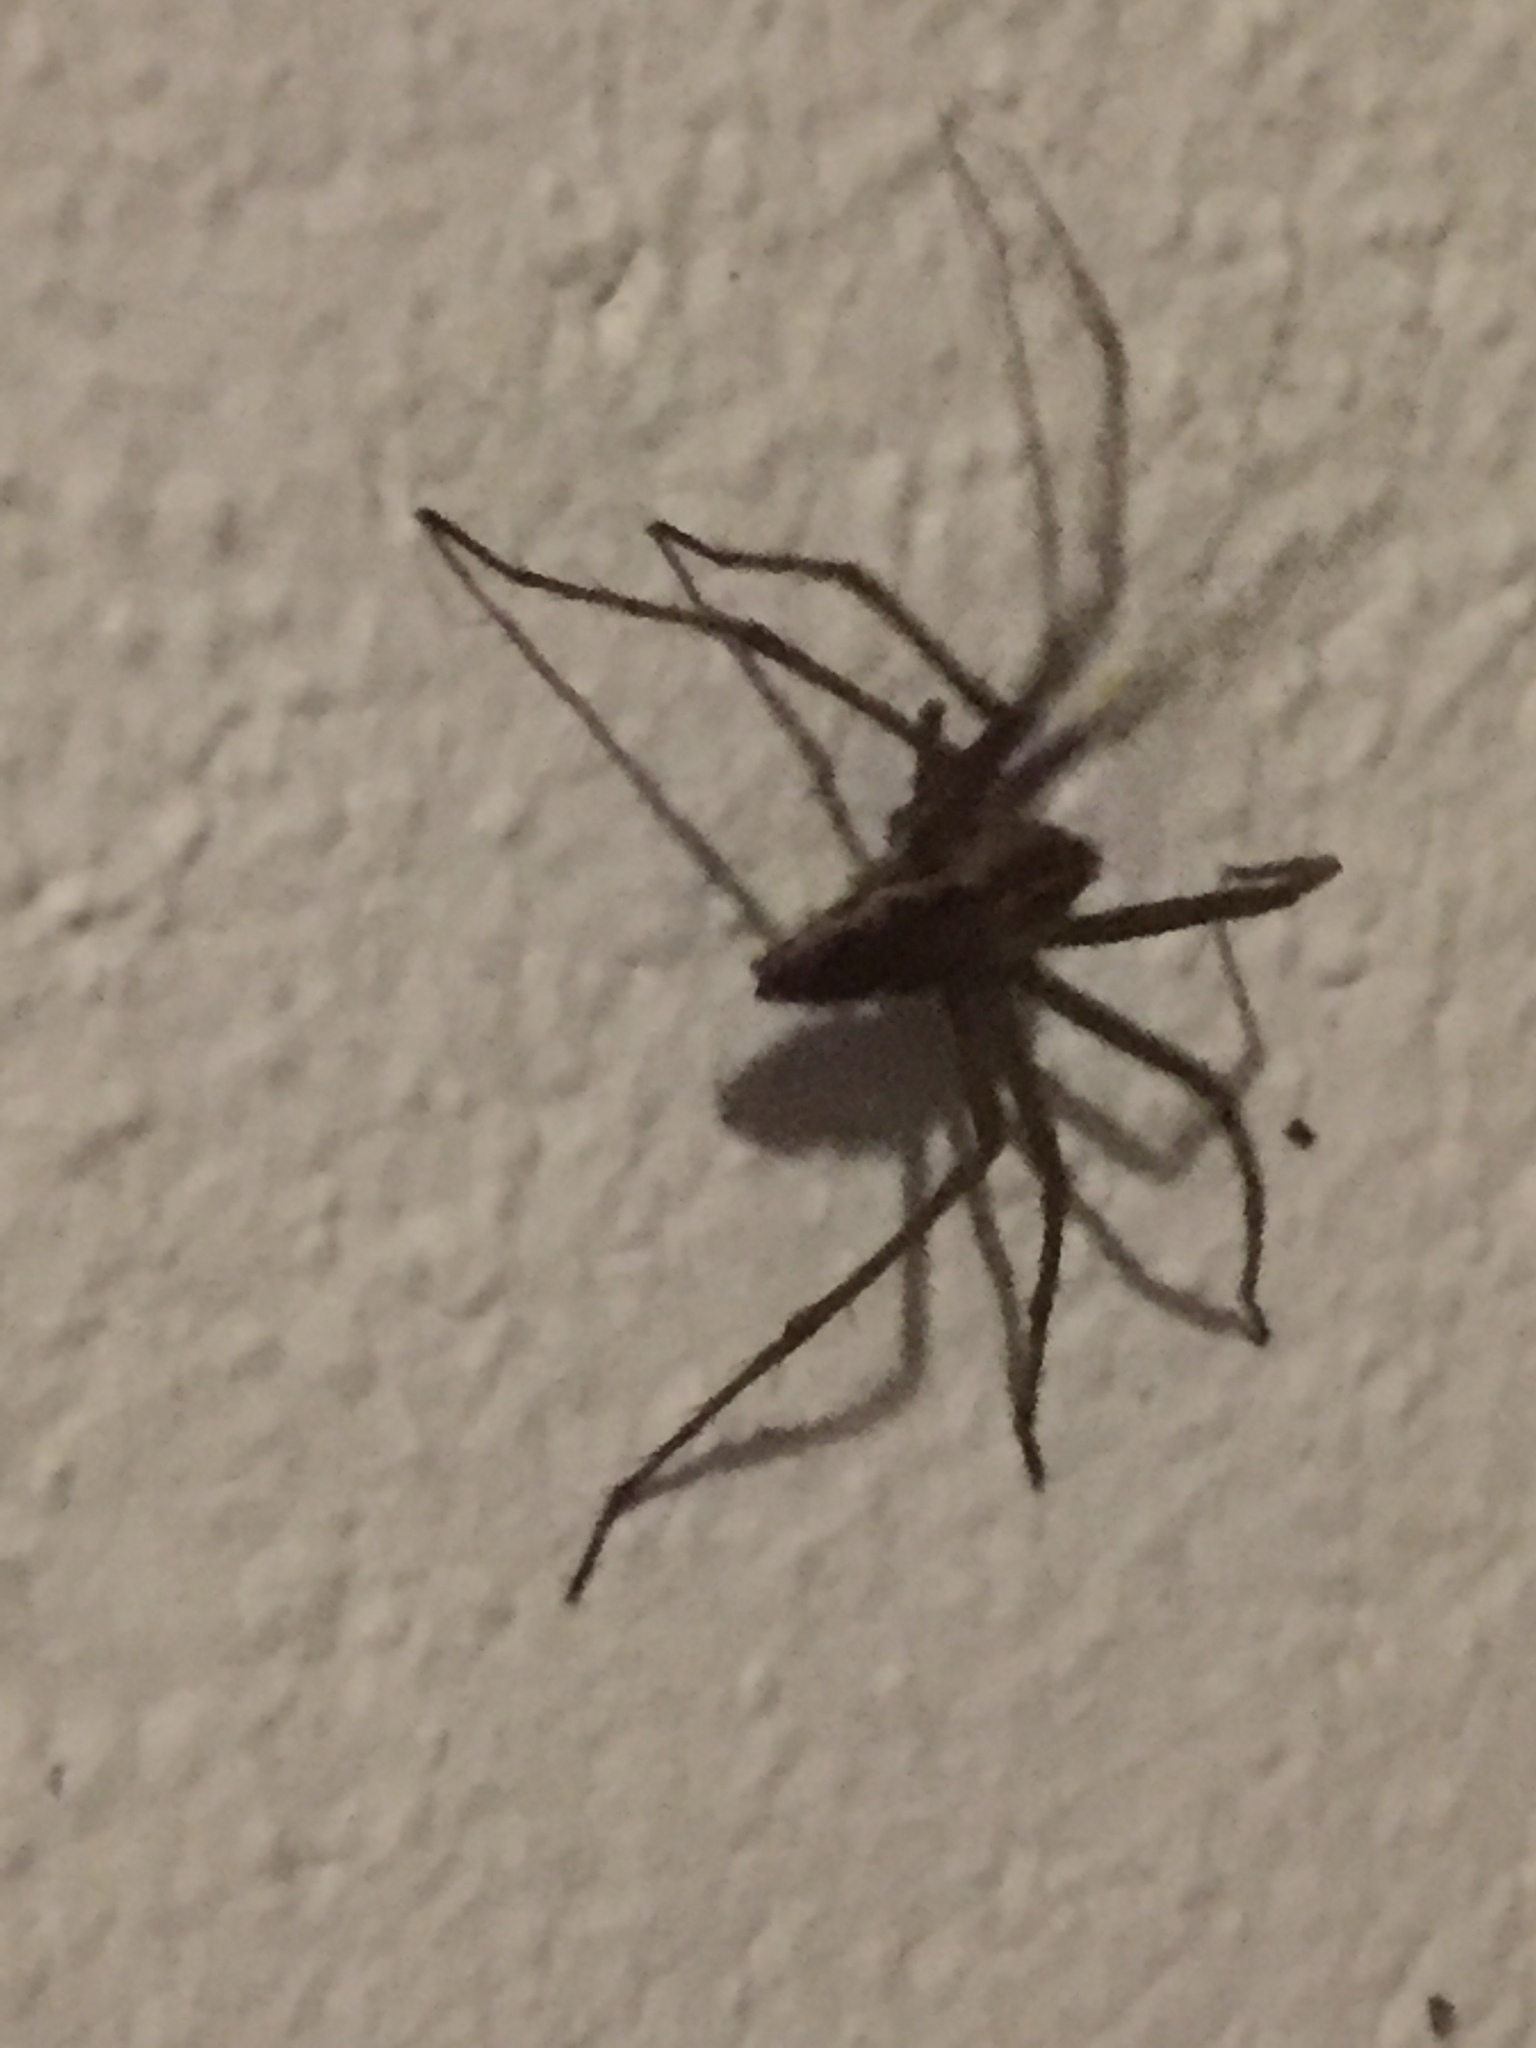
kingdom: Animalia
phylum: Arthropoda
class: Arachnida
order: Araneae
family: Pisauridae
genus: Pisaura
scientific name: Pisaura mirabilis
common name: Tent spider
